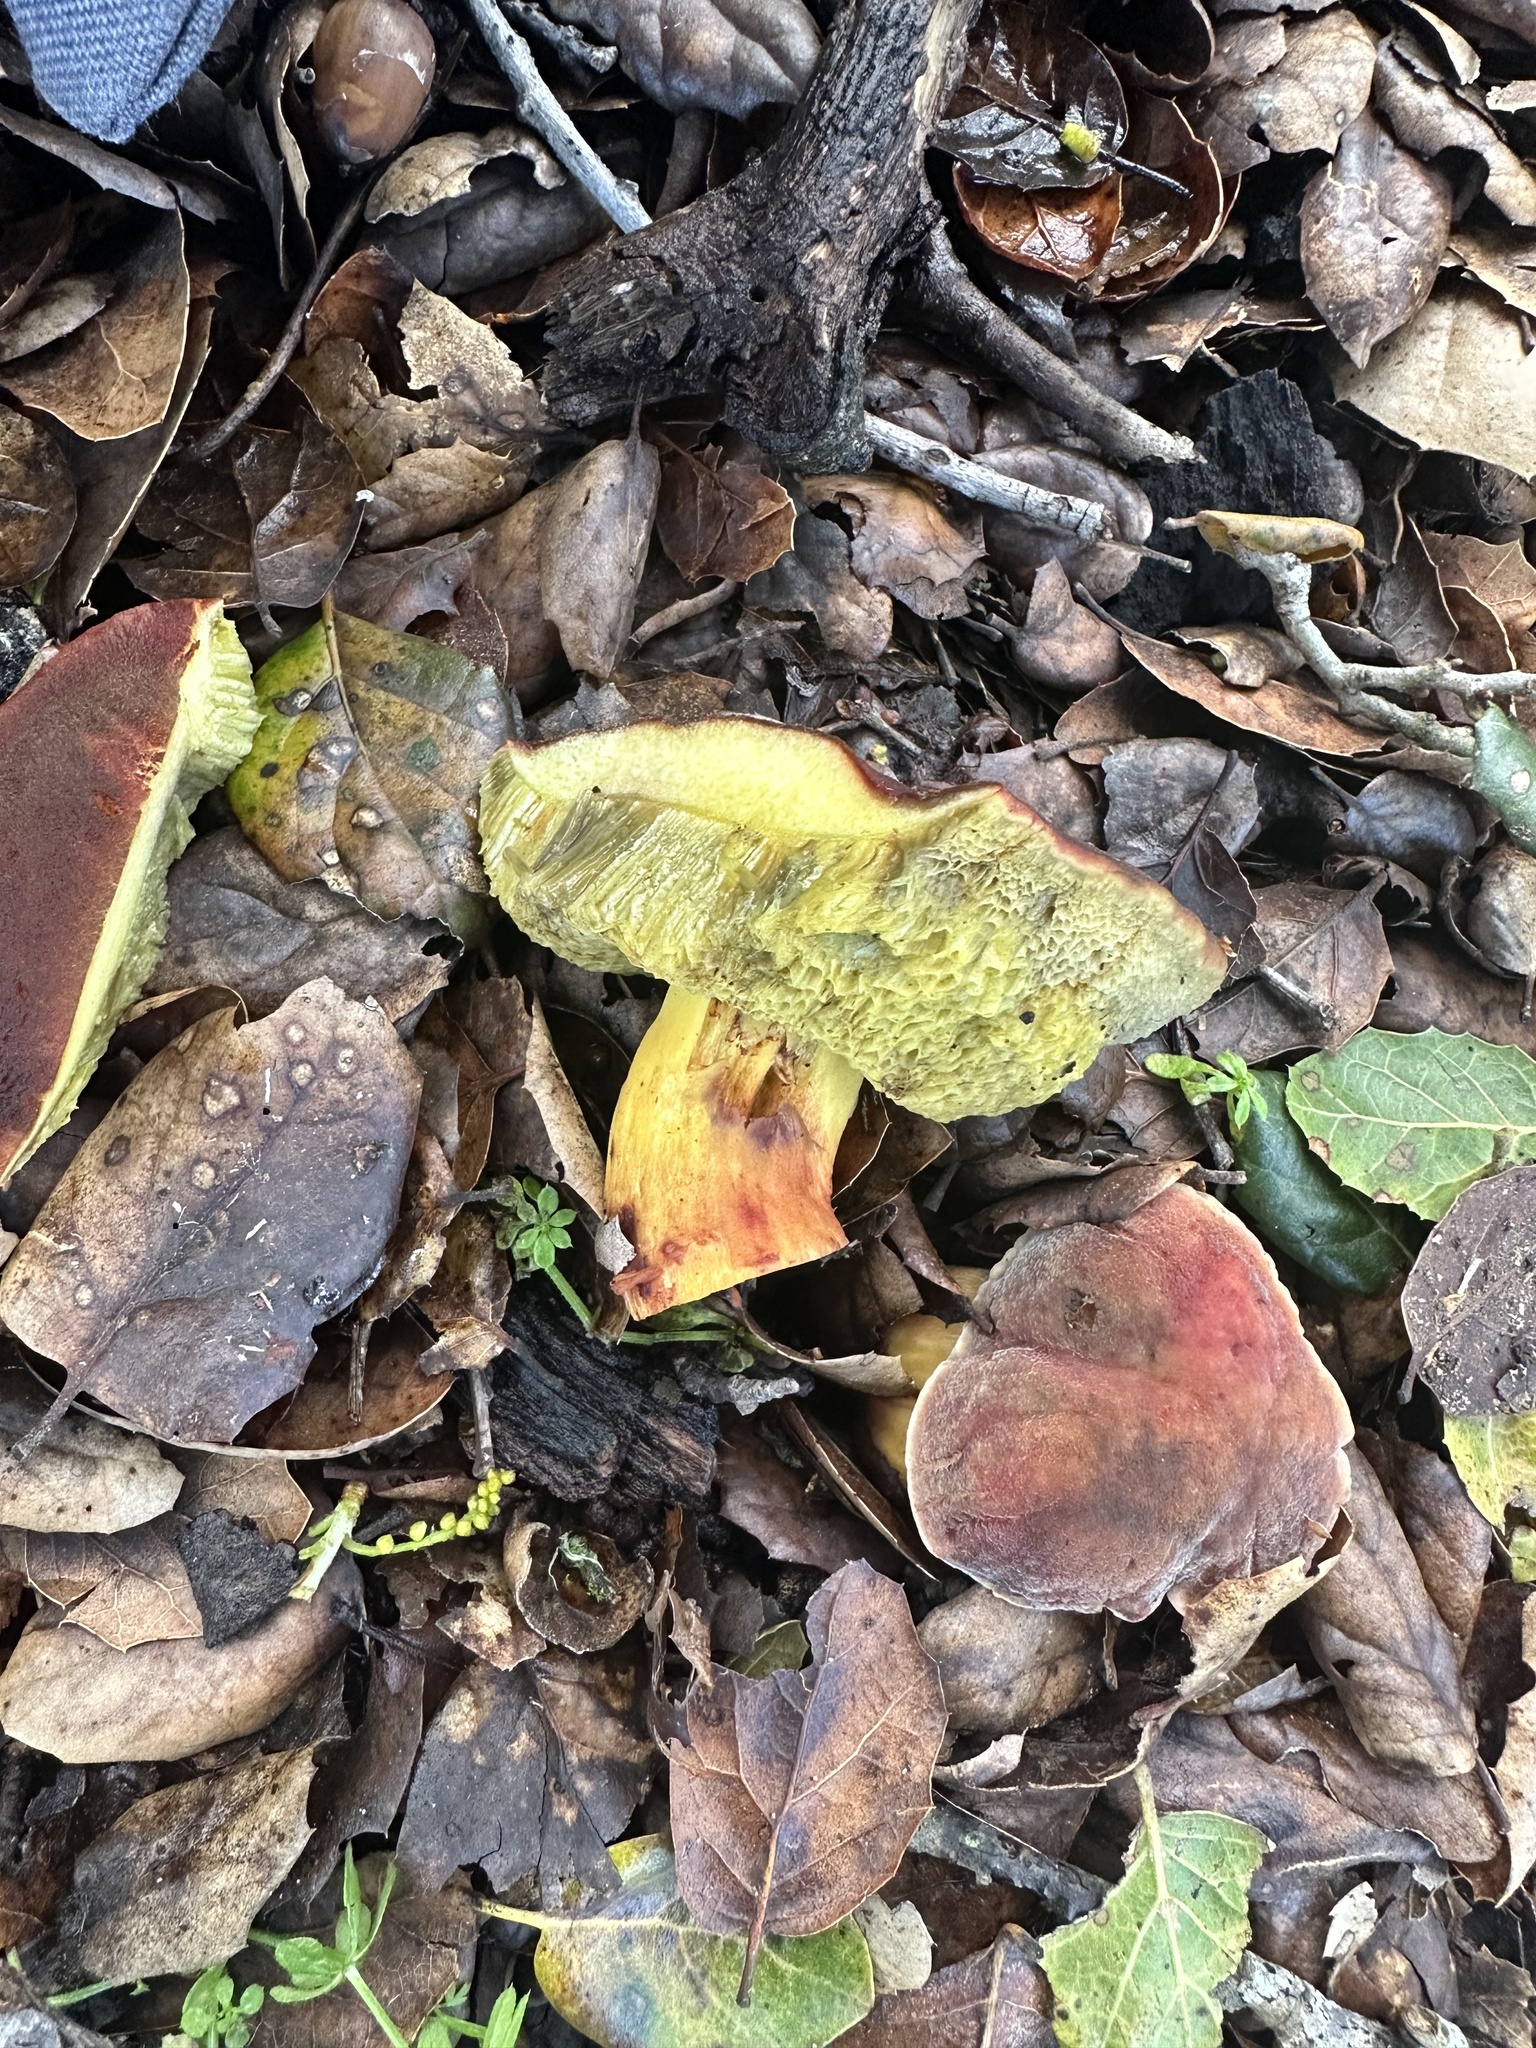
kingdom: Fungi
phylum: Basidiomycota
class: Agaricomycetes
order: Boletales
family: Boletaceae
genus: Xerocomellus
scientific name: Xerocomellus dryophilus
